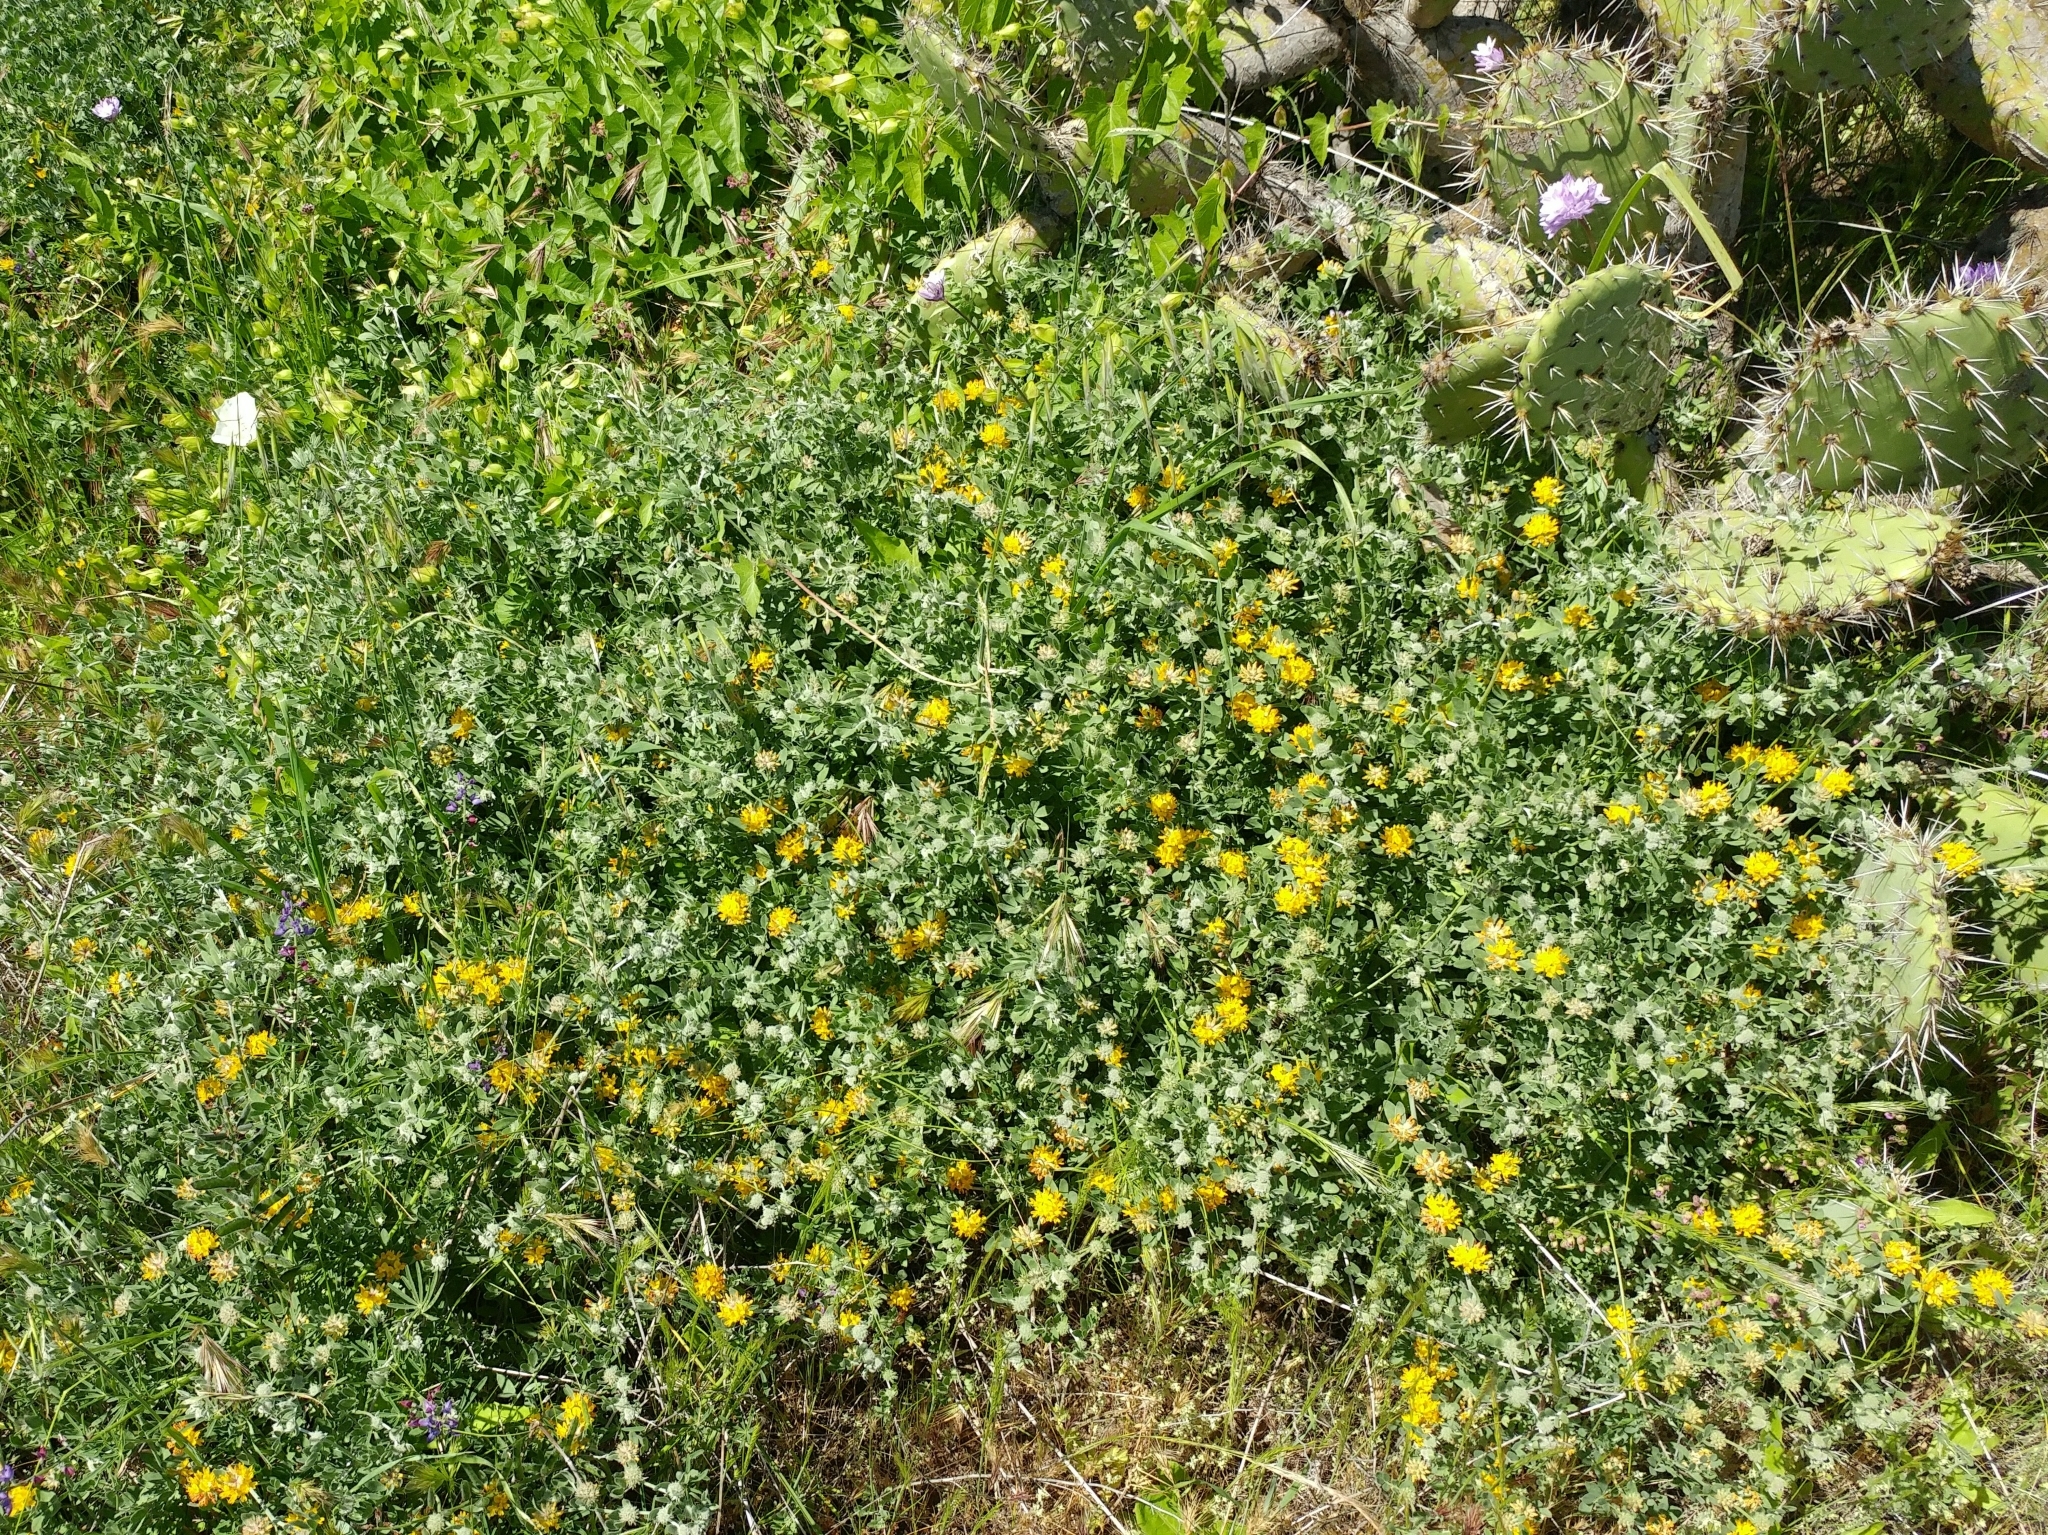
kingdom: Plantae
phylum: Tracheophyta
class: Magnoliopsida
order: Fabales
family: Fabaceae
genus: Acmispon
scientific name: Acmispon argophyllus
